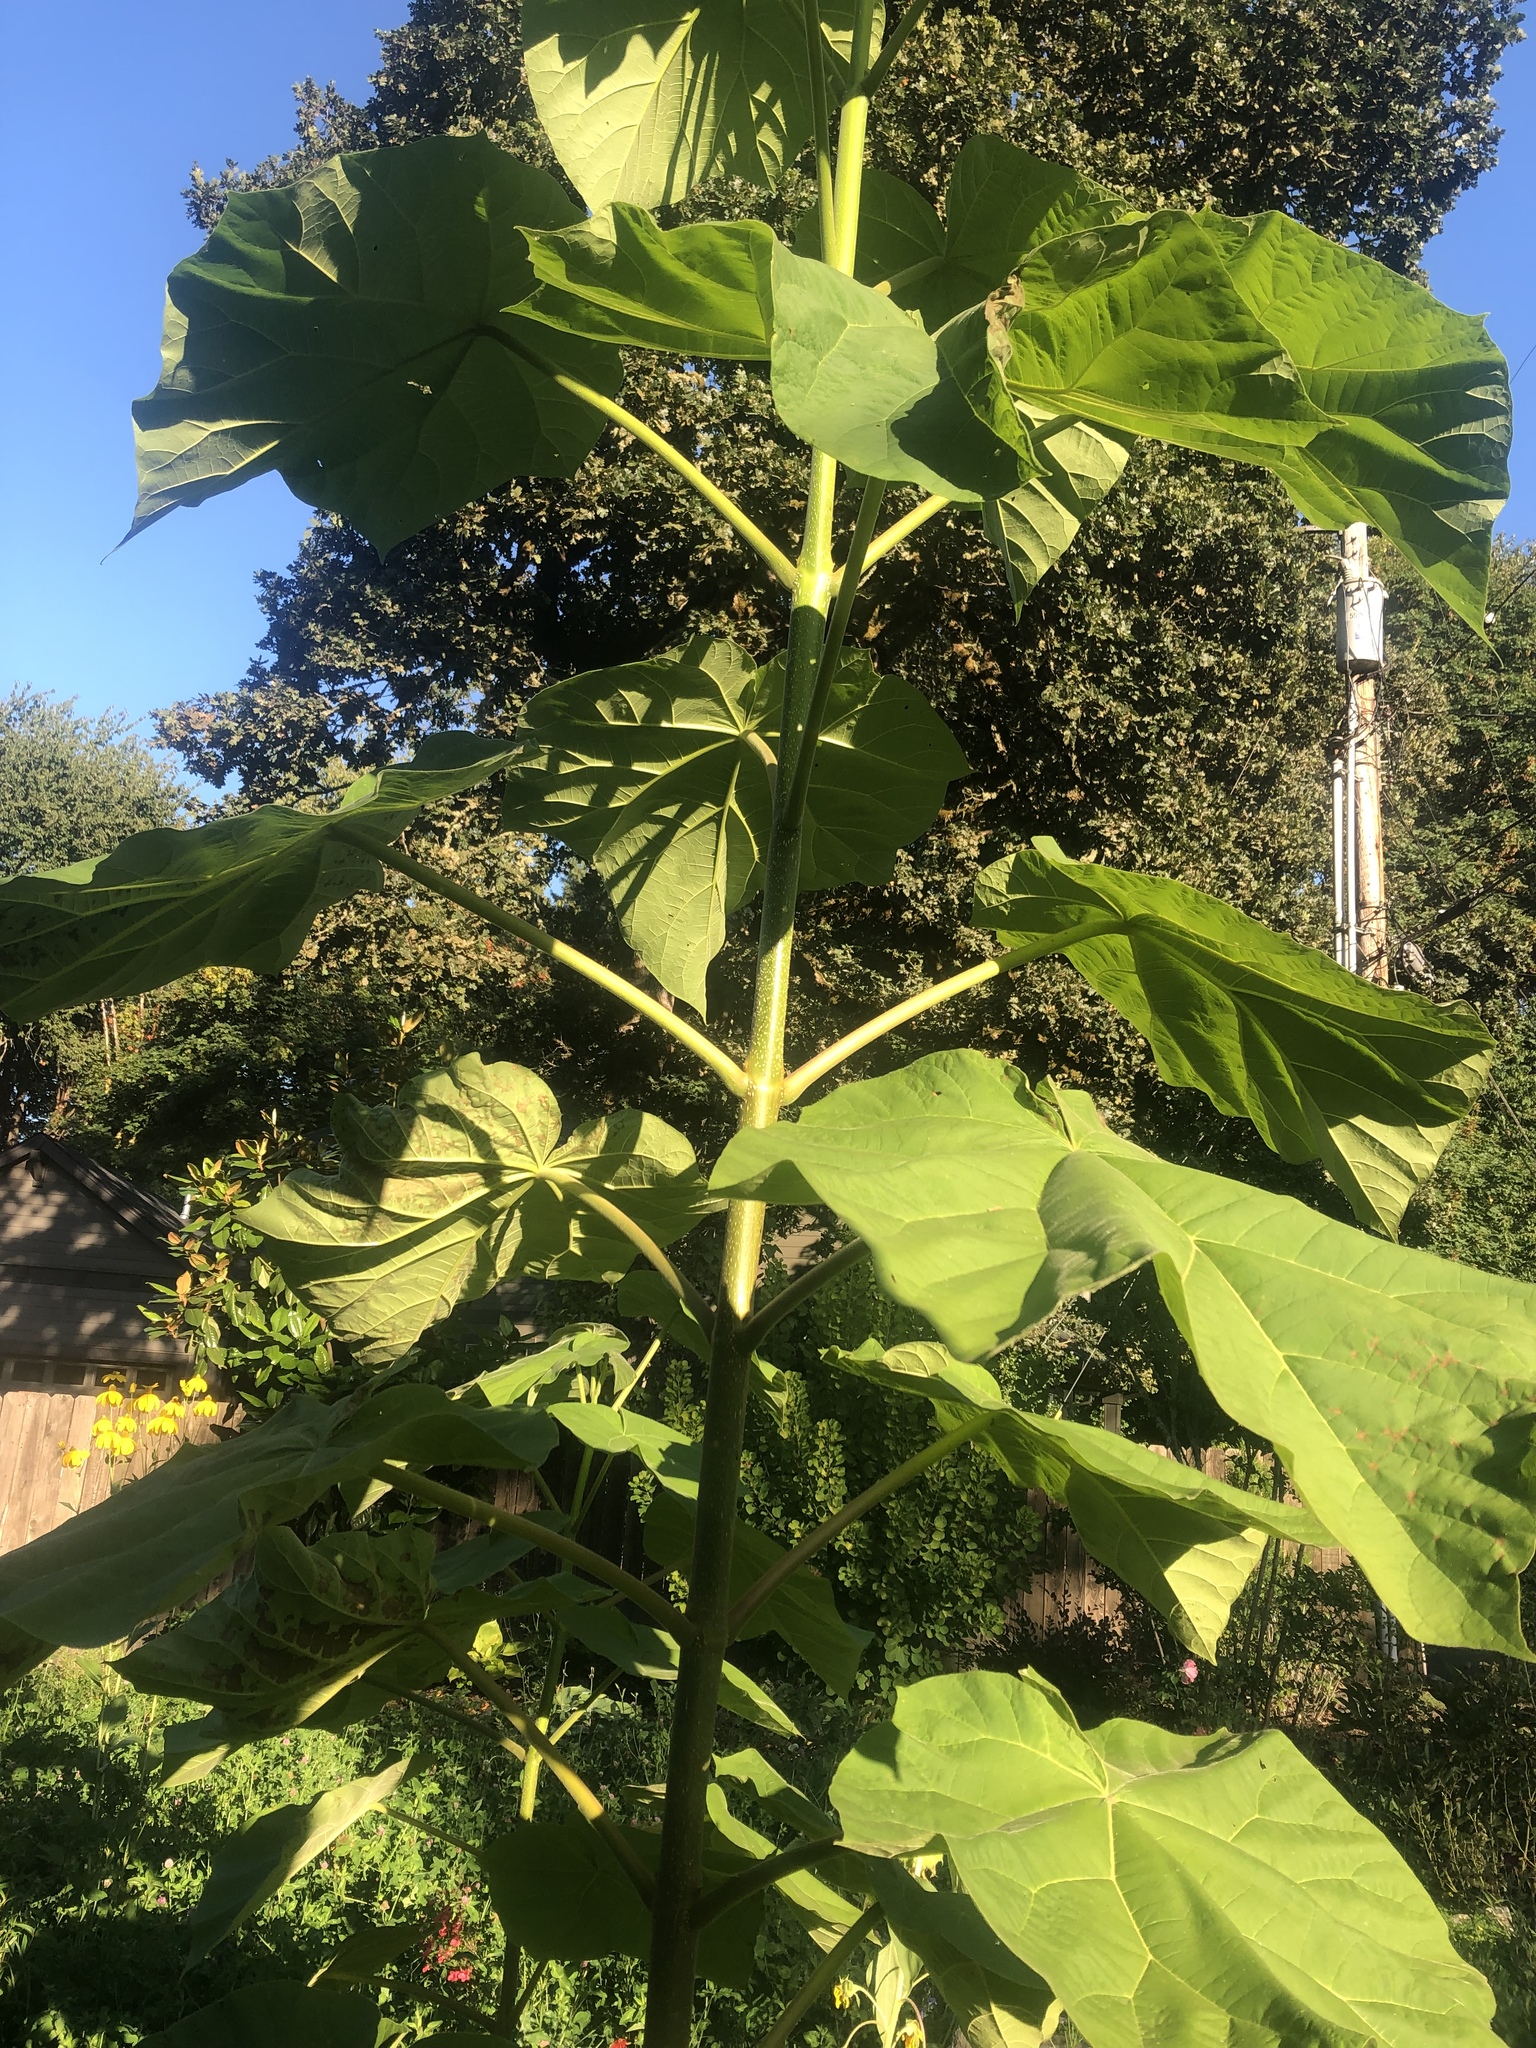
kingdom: Plantae
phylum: Tracheophyta
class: Magnoliopsida
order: Lamiales
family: Paulowniaceae
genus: Paulownia
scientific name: Paulownia tomentosa
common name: Foxglove-tree
